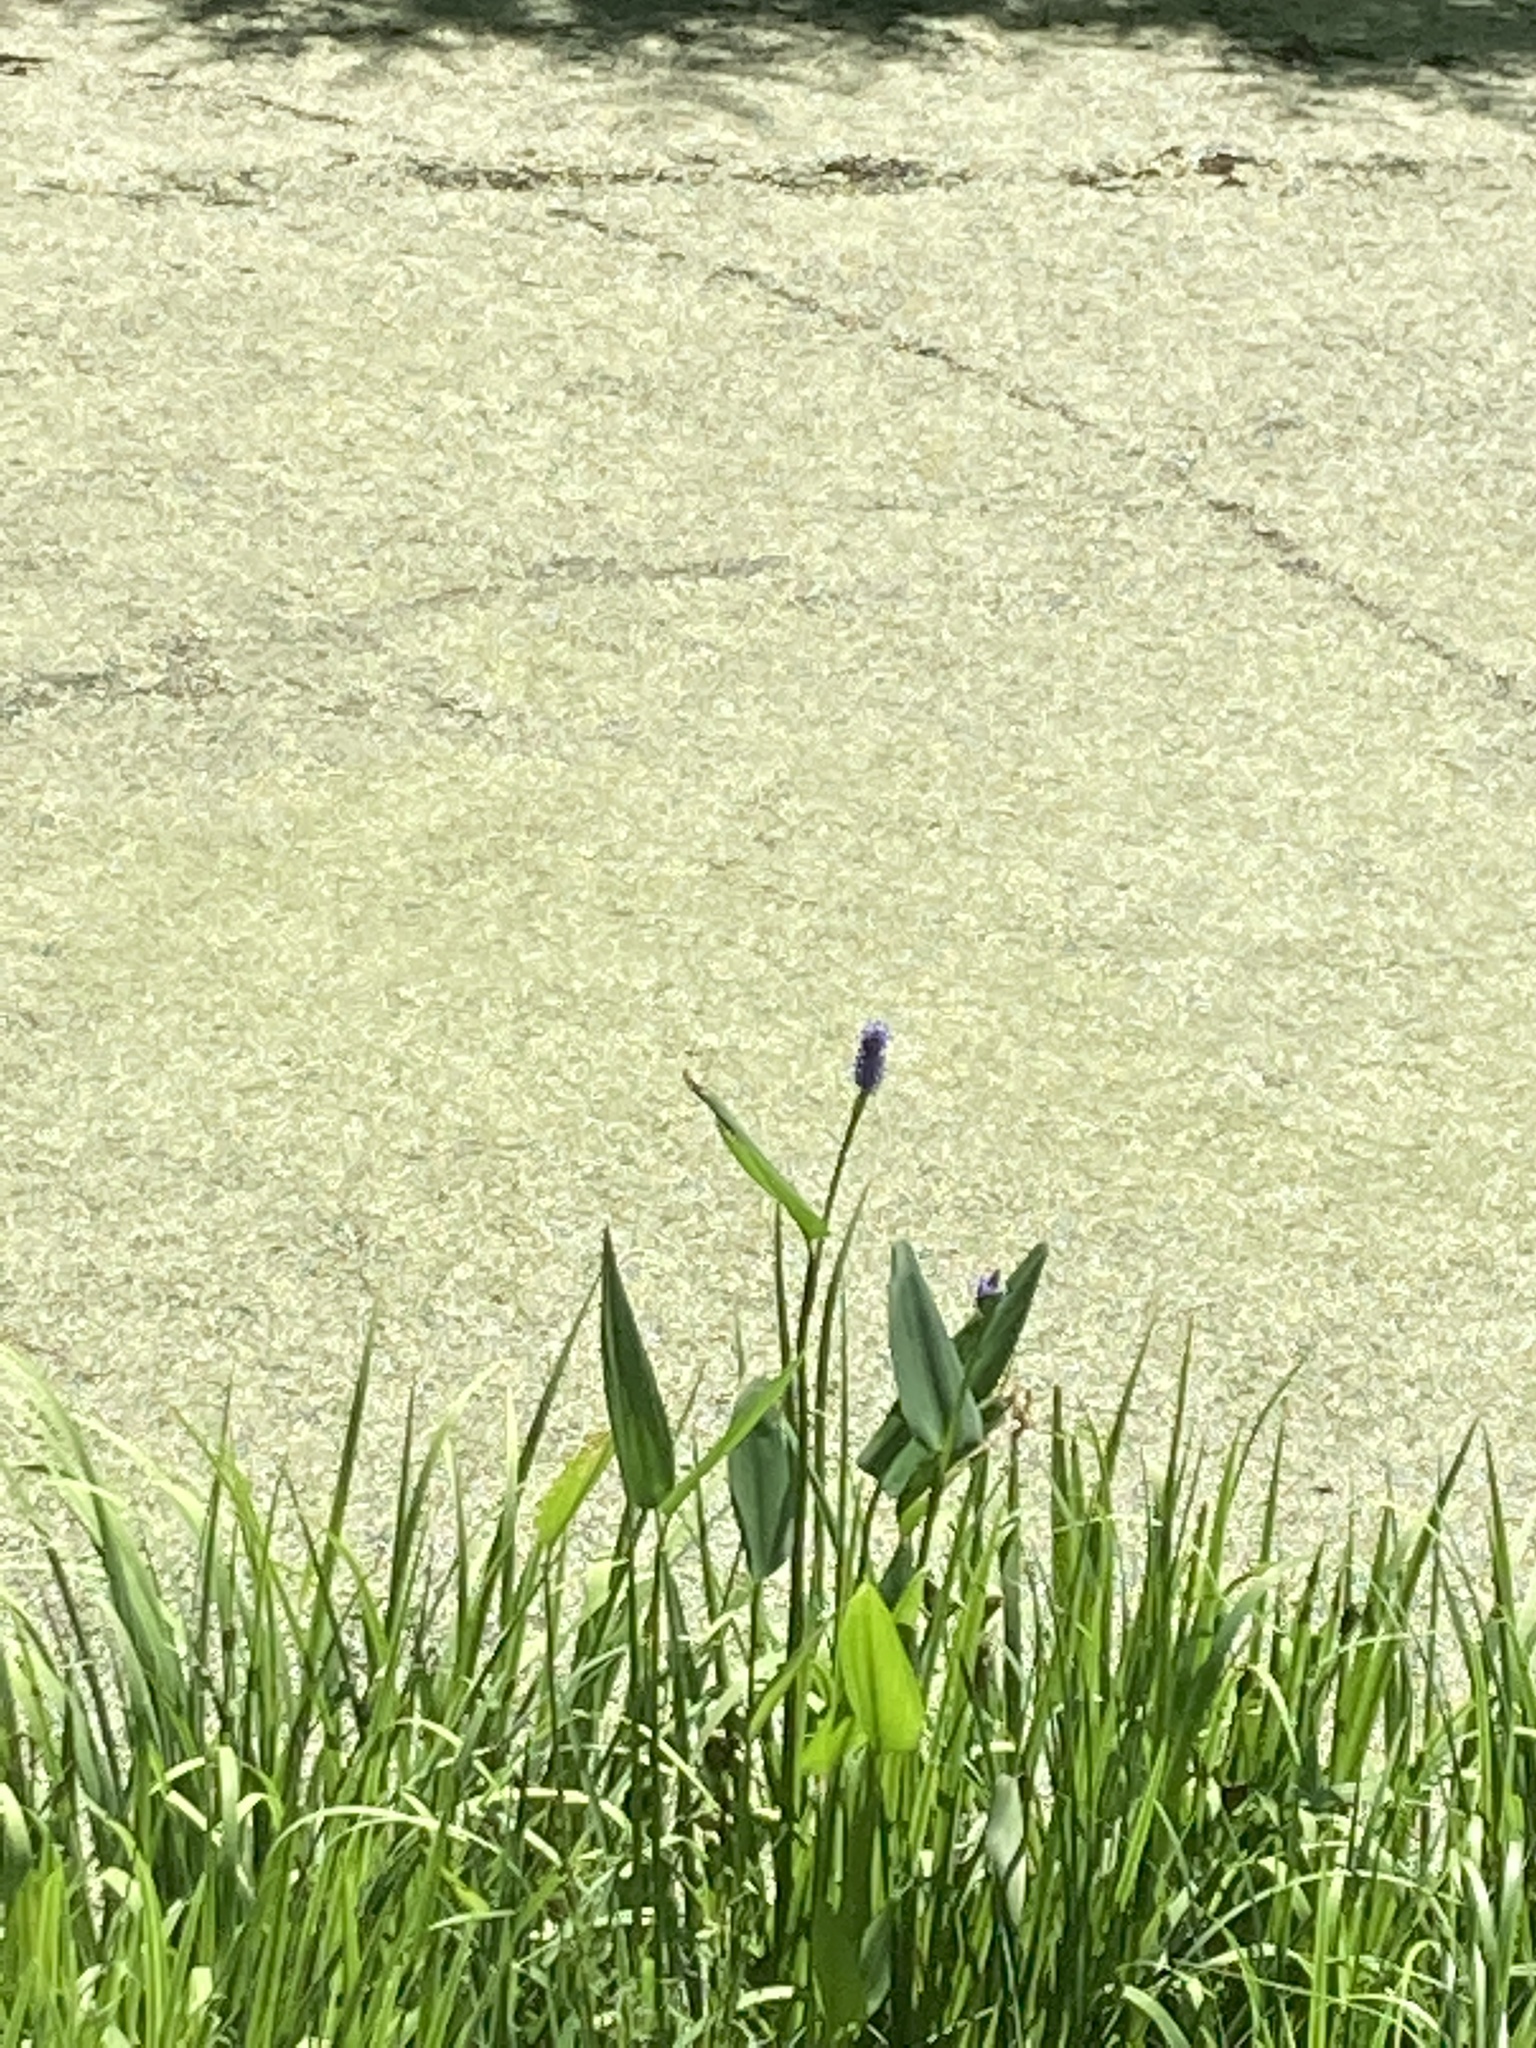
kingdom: Plantae
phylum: Tracheophyta
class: Liliopsida
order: Commelinales
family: Pontederiaceae
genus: Pontederia
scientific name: Pontederia cordata
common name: Pickerelweed
